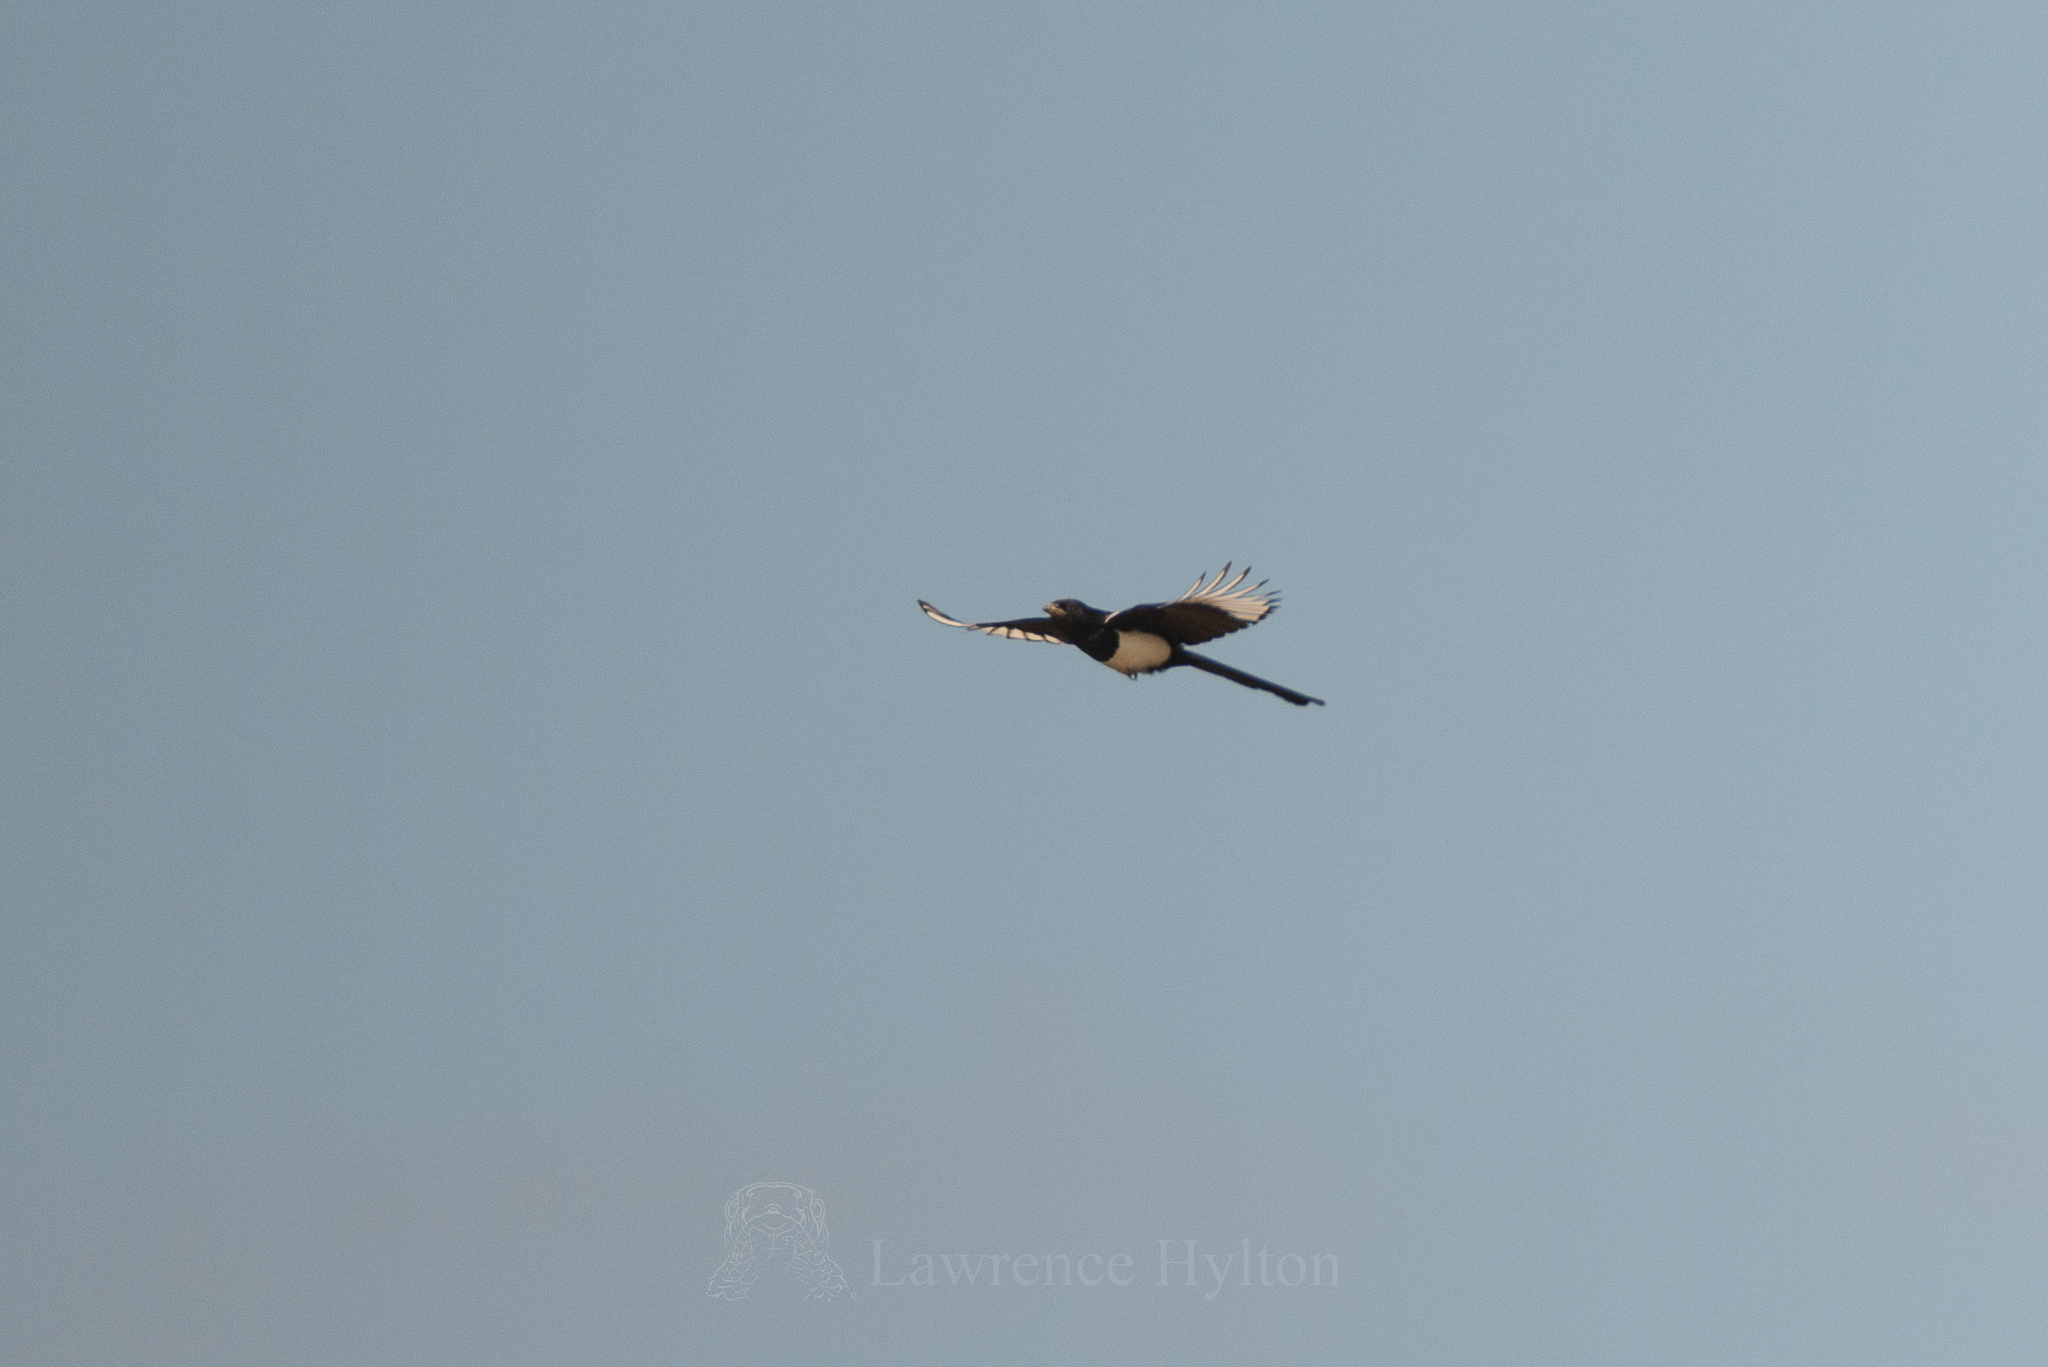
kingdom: Animalia
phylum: Chordata
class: Aves
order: Passeriformes
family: Corvidae
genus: Pica
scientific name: Pica serica
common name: Oriental magpie
